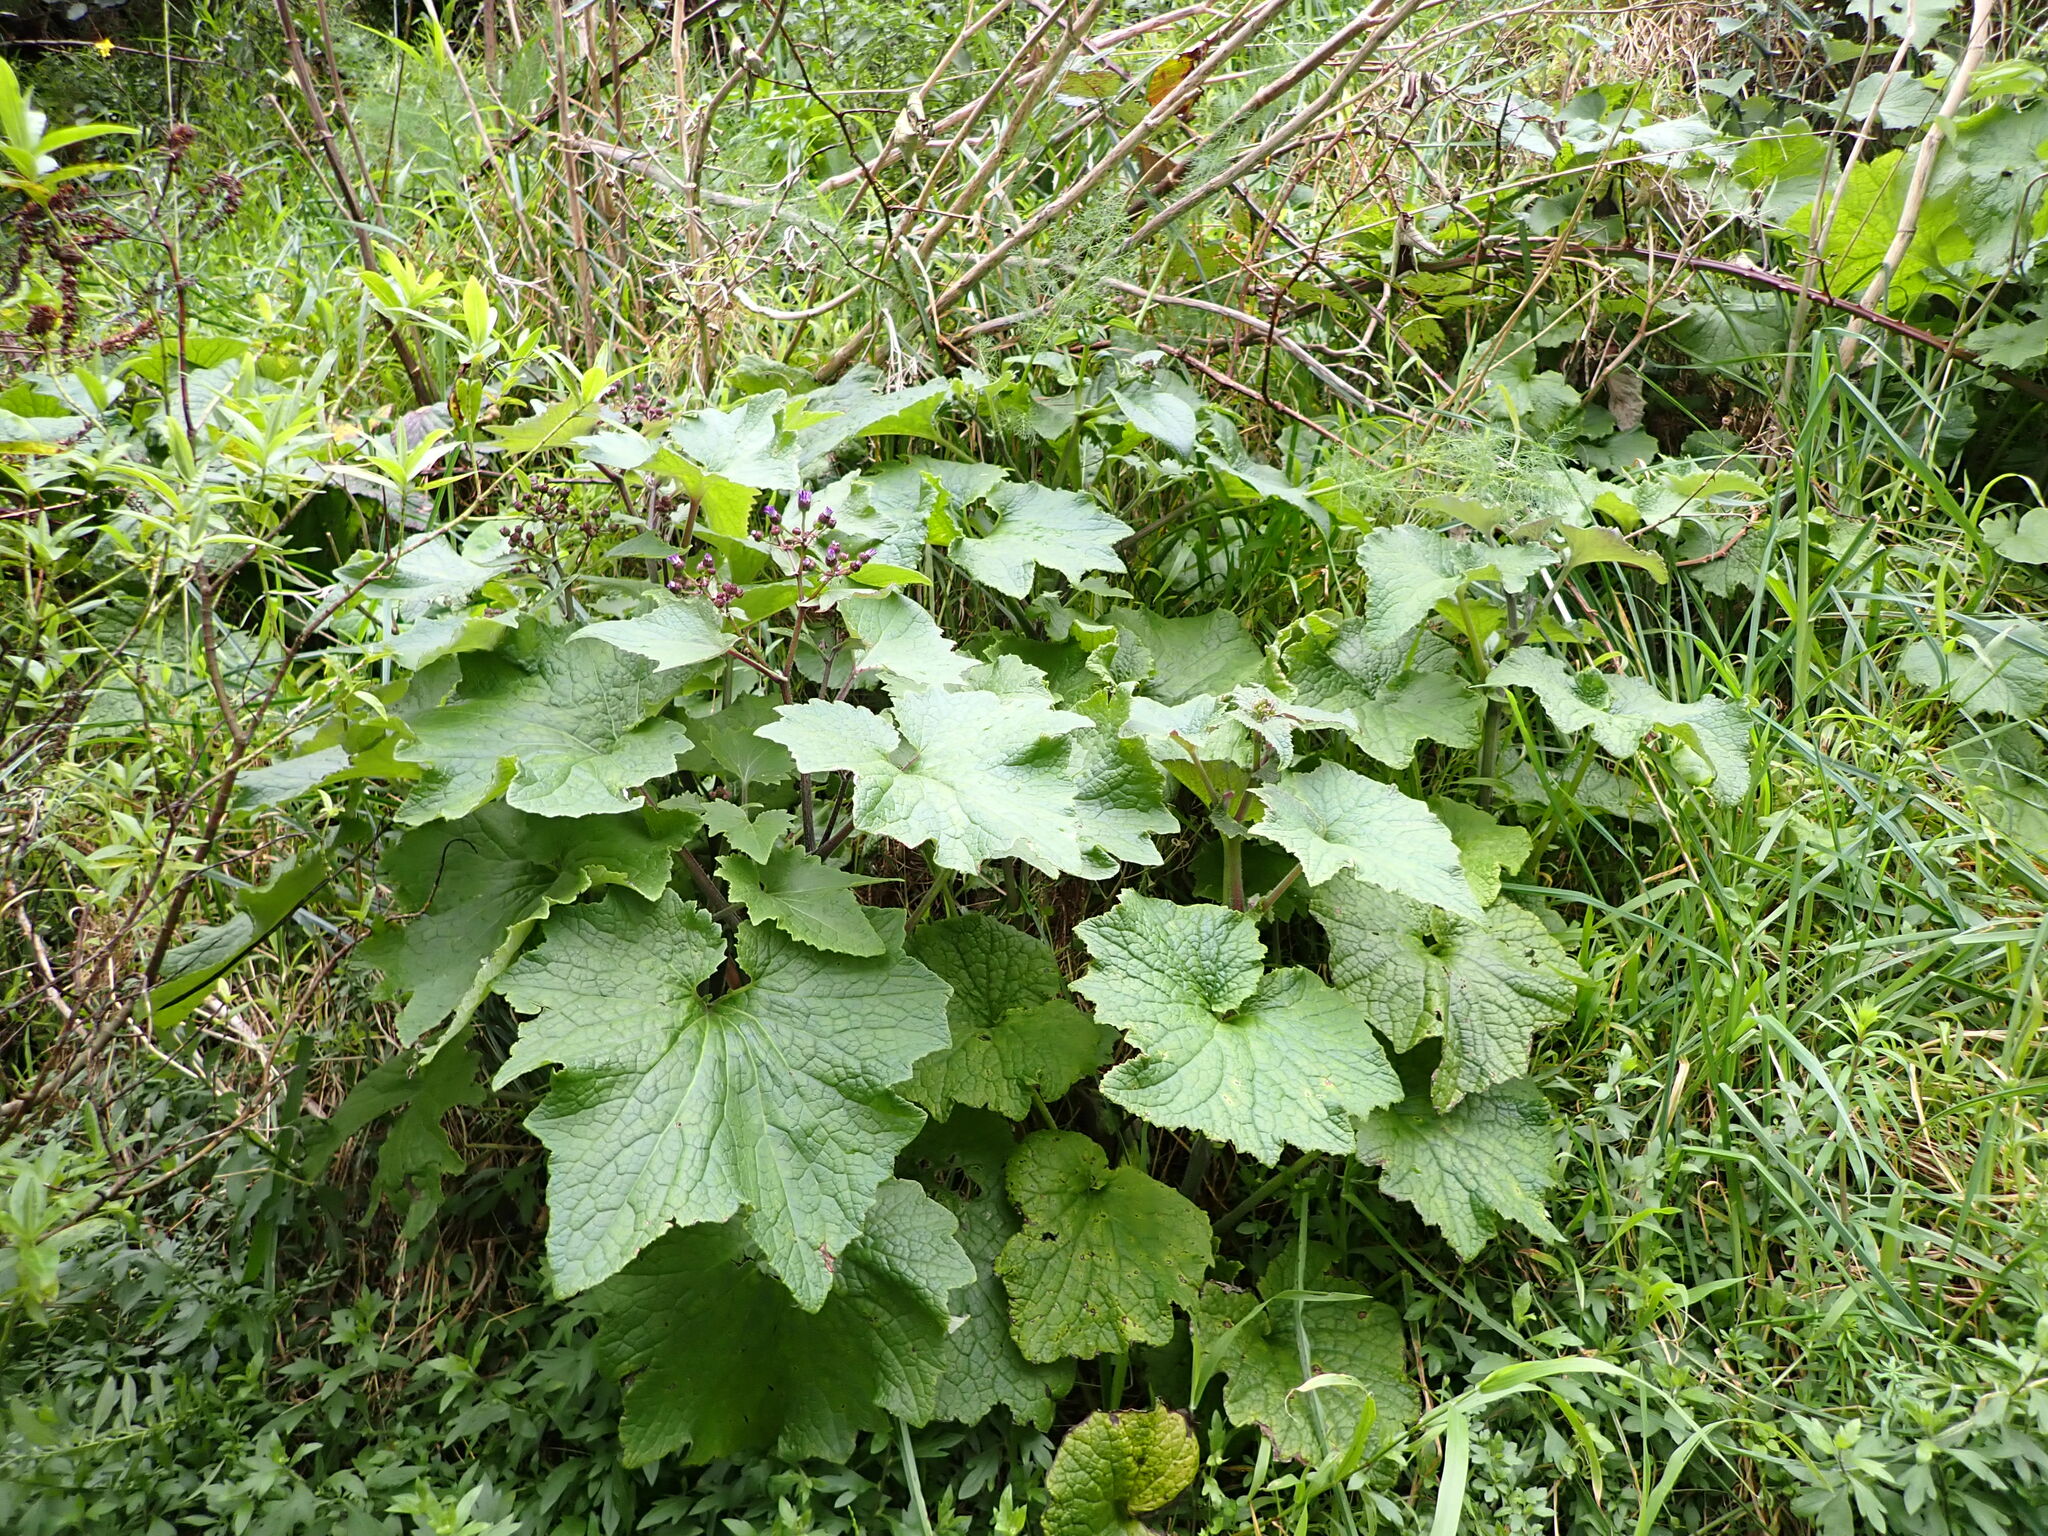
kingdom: Plantae
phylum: Tracheophyta
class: Magnoliopsida
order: Asterales
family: Asteraceae
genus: Pericallis
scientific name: Pericallis hybrida
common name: Cineraria
